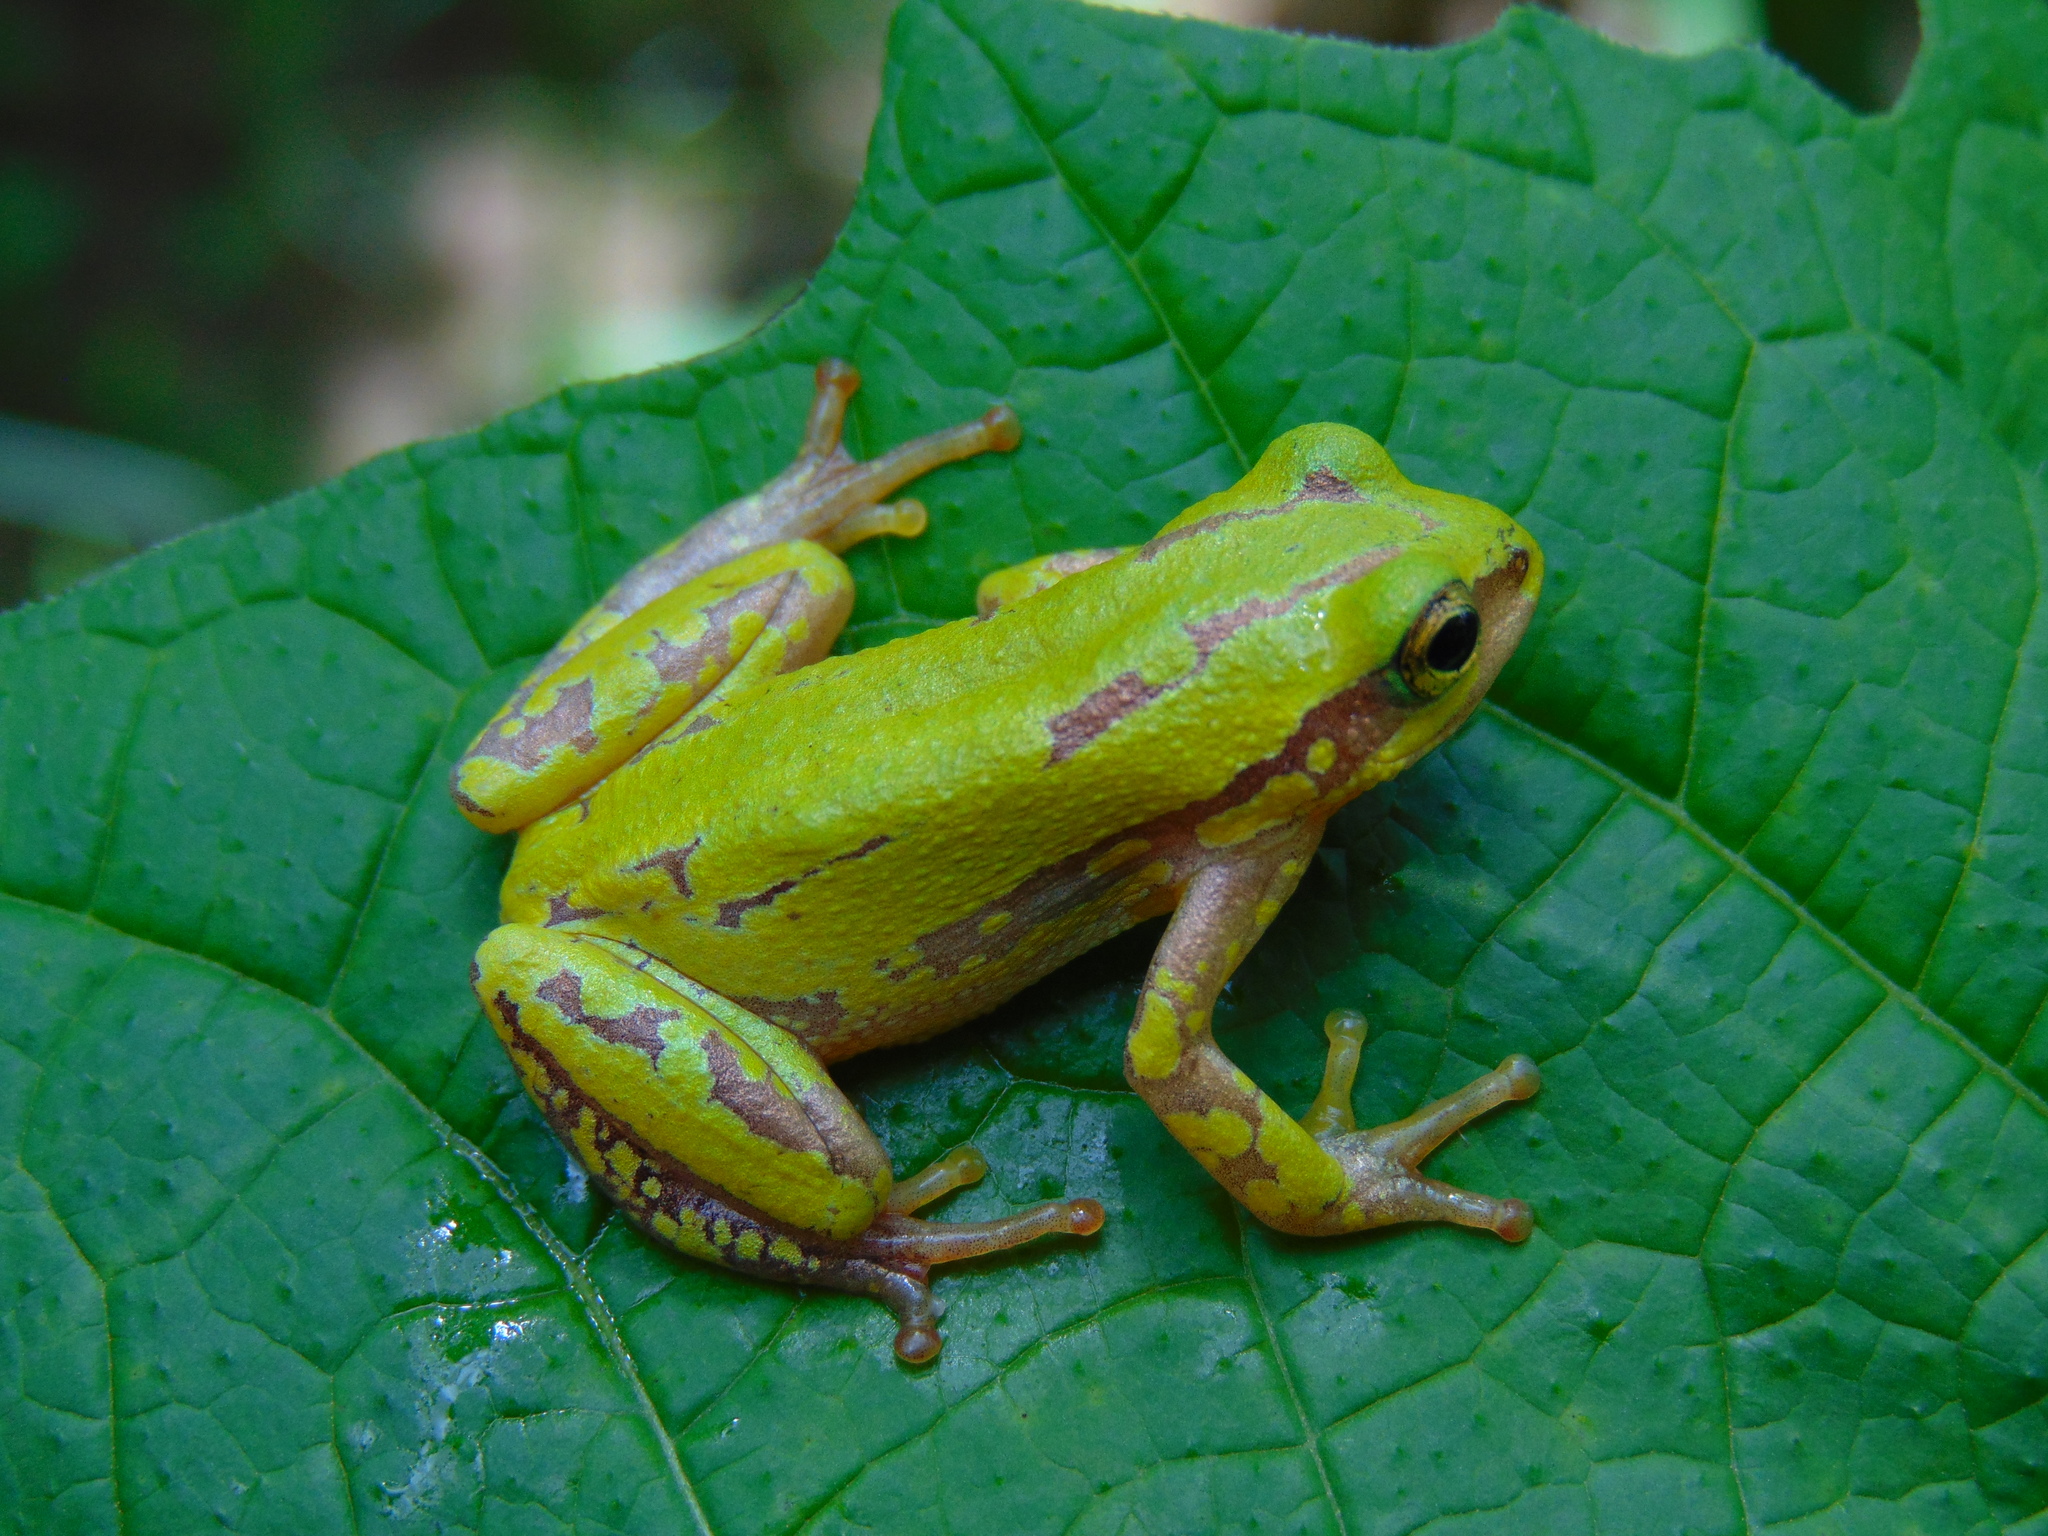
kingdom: Animalia
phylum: Chordata
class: Amphibia
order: Anura
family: Hyperoliidae
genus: Hyperolius
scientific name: Hyperolius pictus
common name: Variable reed frog
